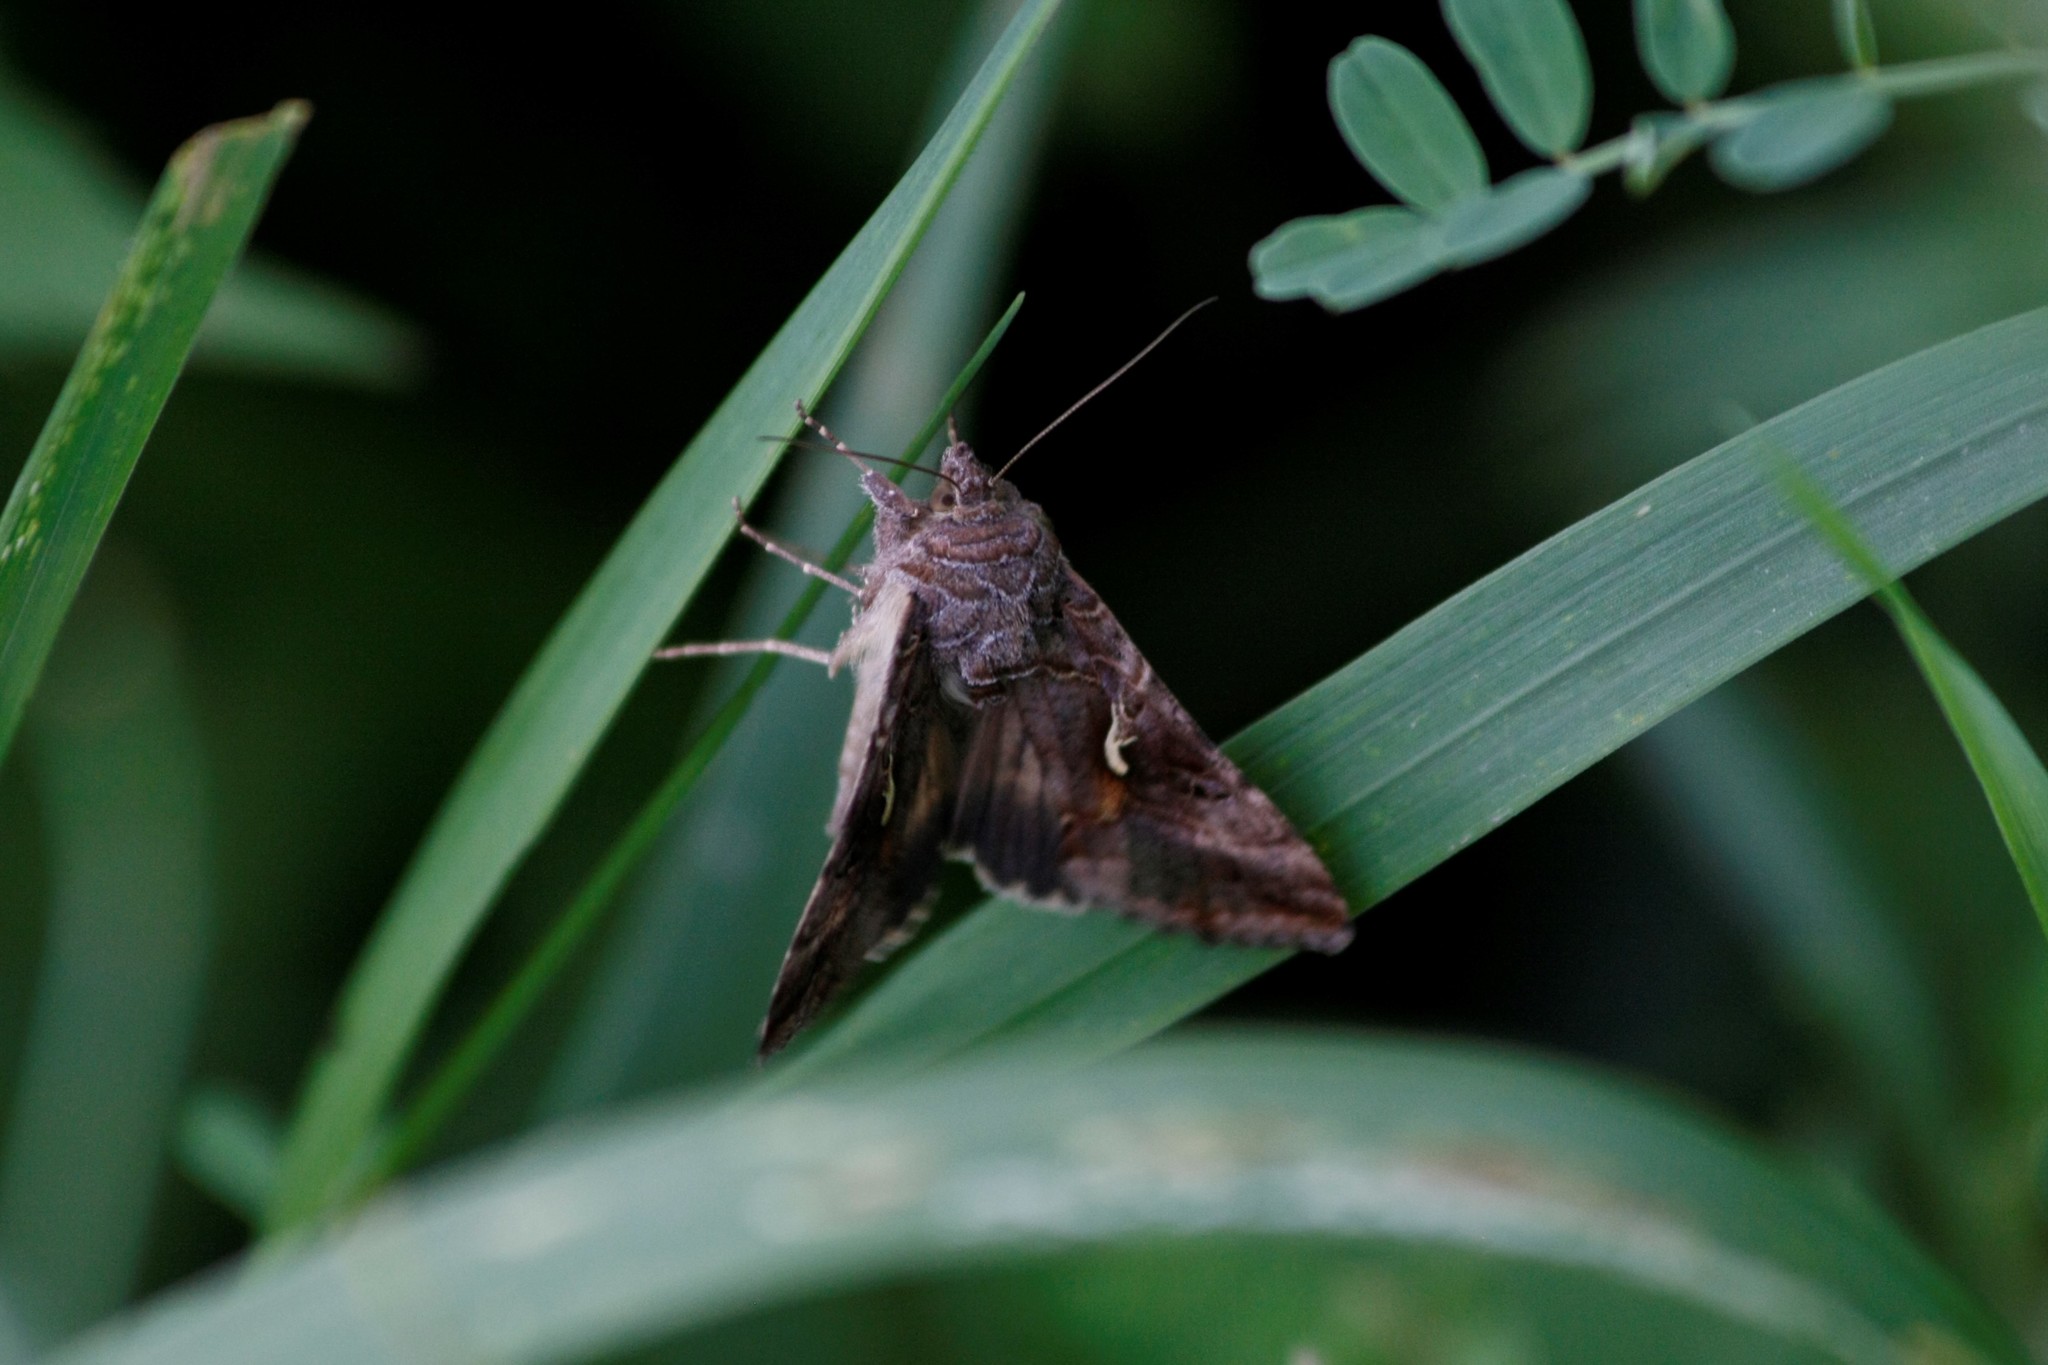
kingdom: Animalia
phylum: Arthropoda
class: Insecta
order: Lepidoptera
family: Noctuidae
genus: Autographa
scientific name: Autographa gamma
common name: Silver y
